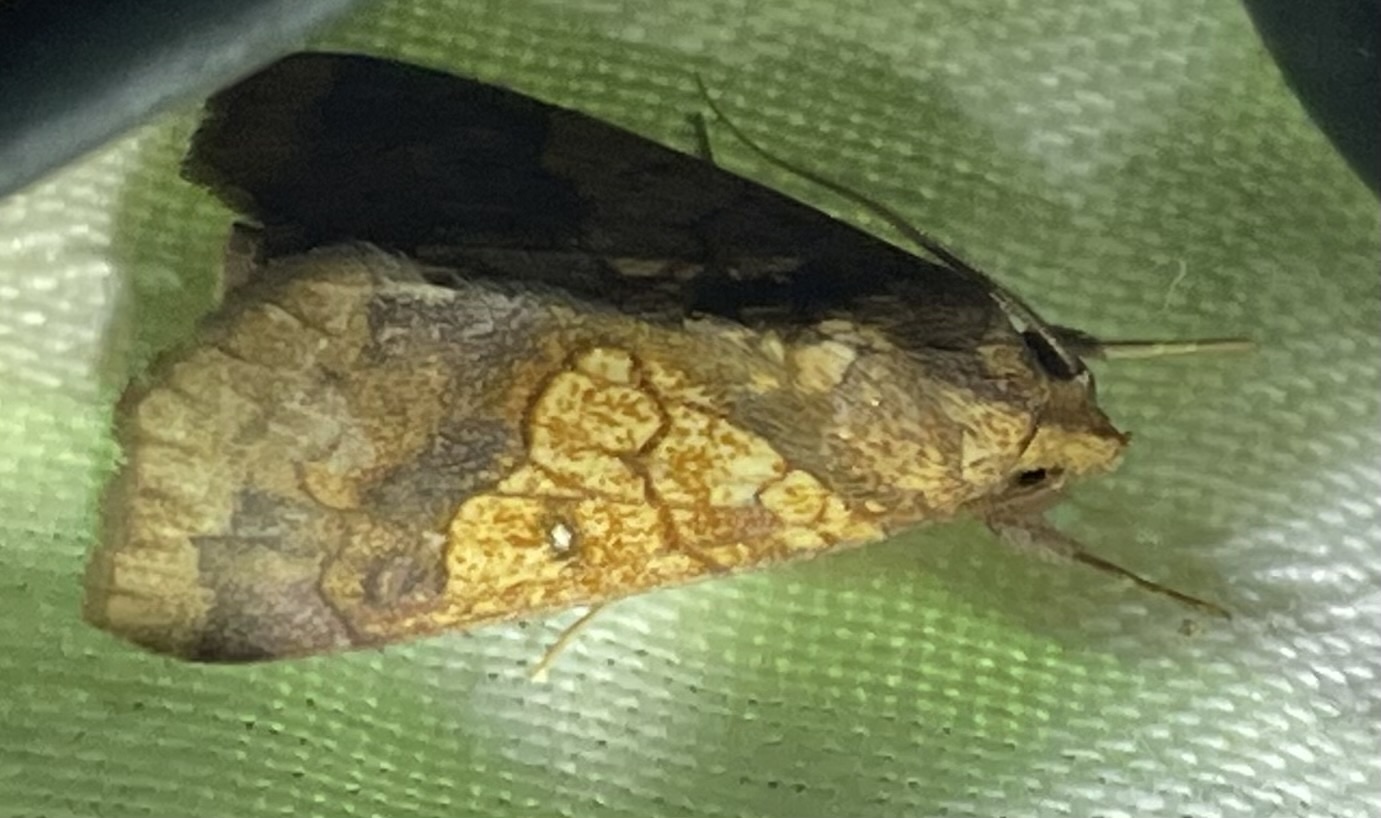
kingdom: Animalia
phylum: Arthropoda
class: Insecta
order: Lepidoptera
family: Erebidae
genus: Anomis
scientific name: Anomis flava
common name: Moth
